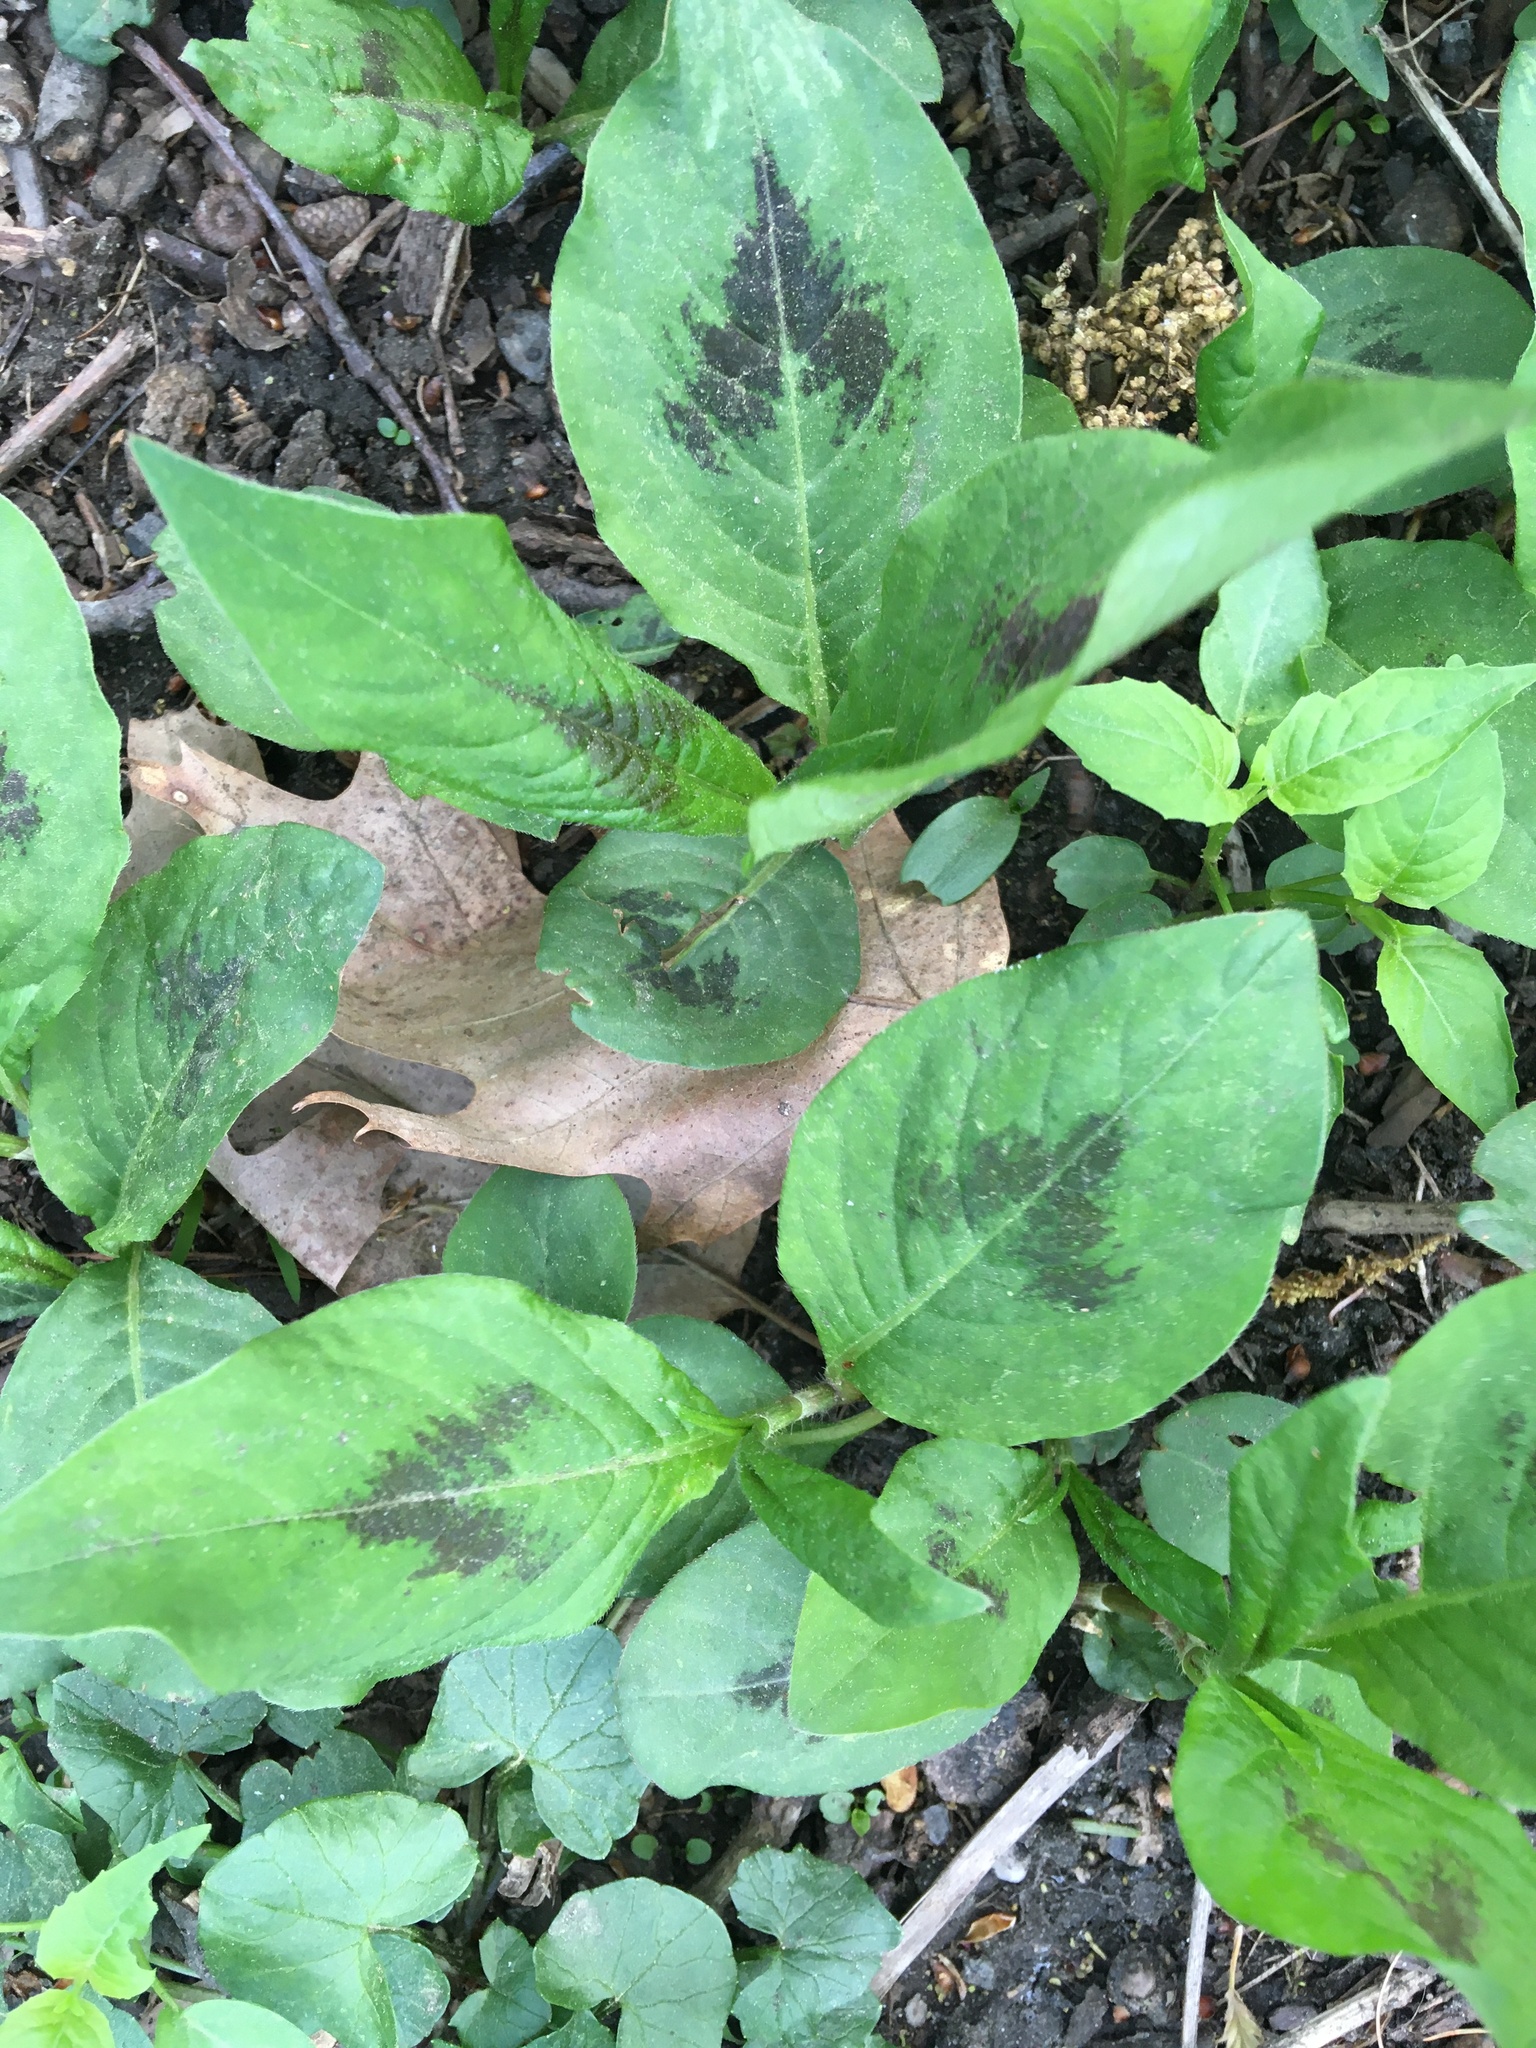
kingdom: Plantae
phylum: Tracheophyta
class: Magnoliopsida
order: Caryophyllales
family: Polygonaceae
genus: Persicaria
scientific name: Persicaria virginiana
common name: Jumpseed
